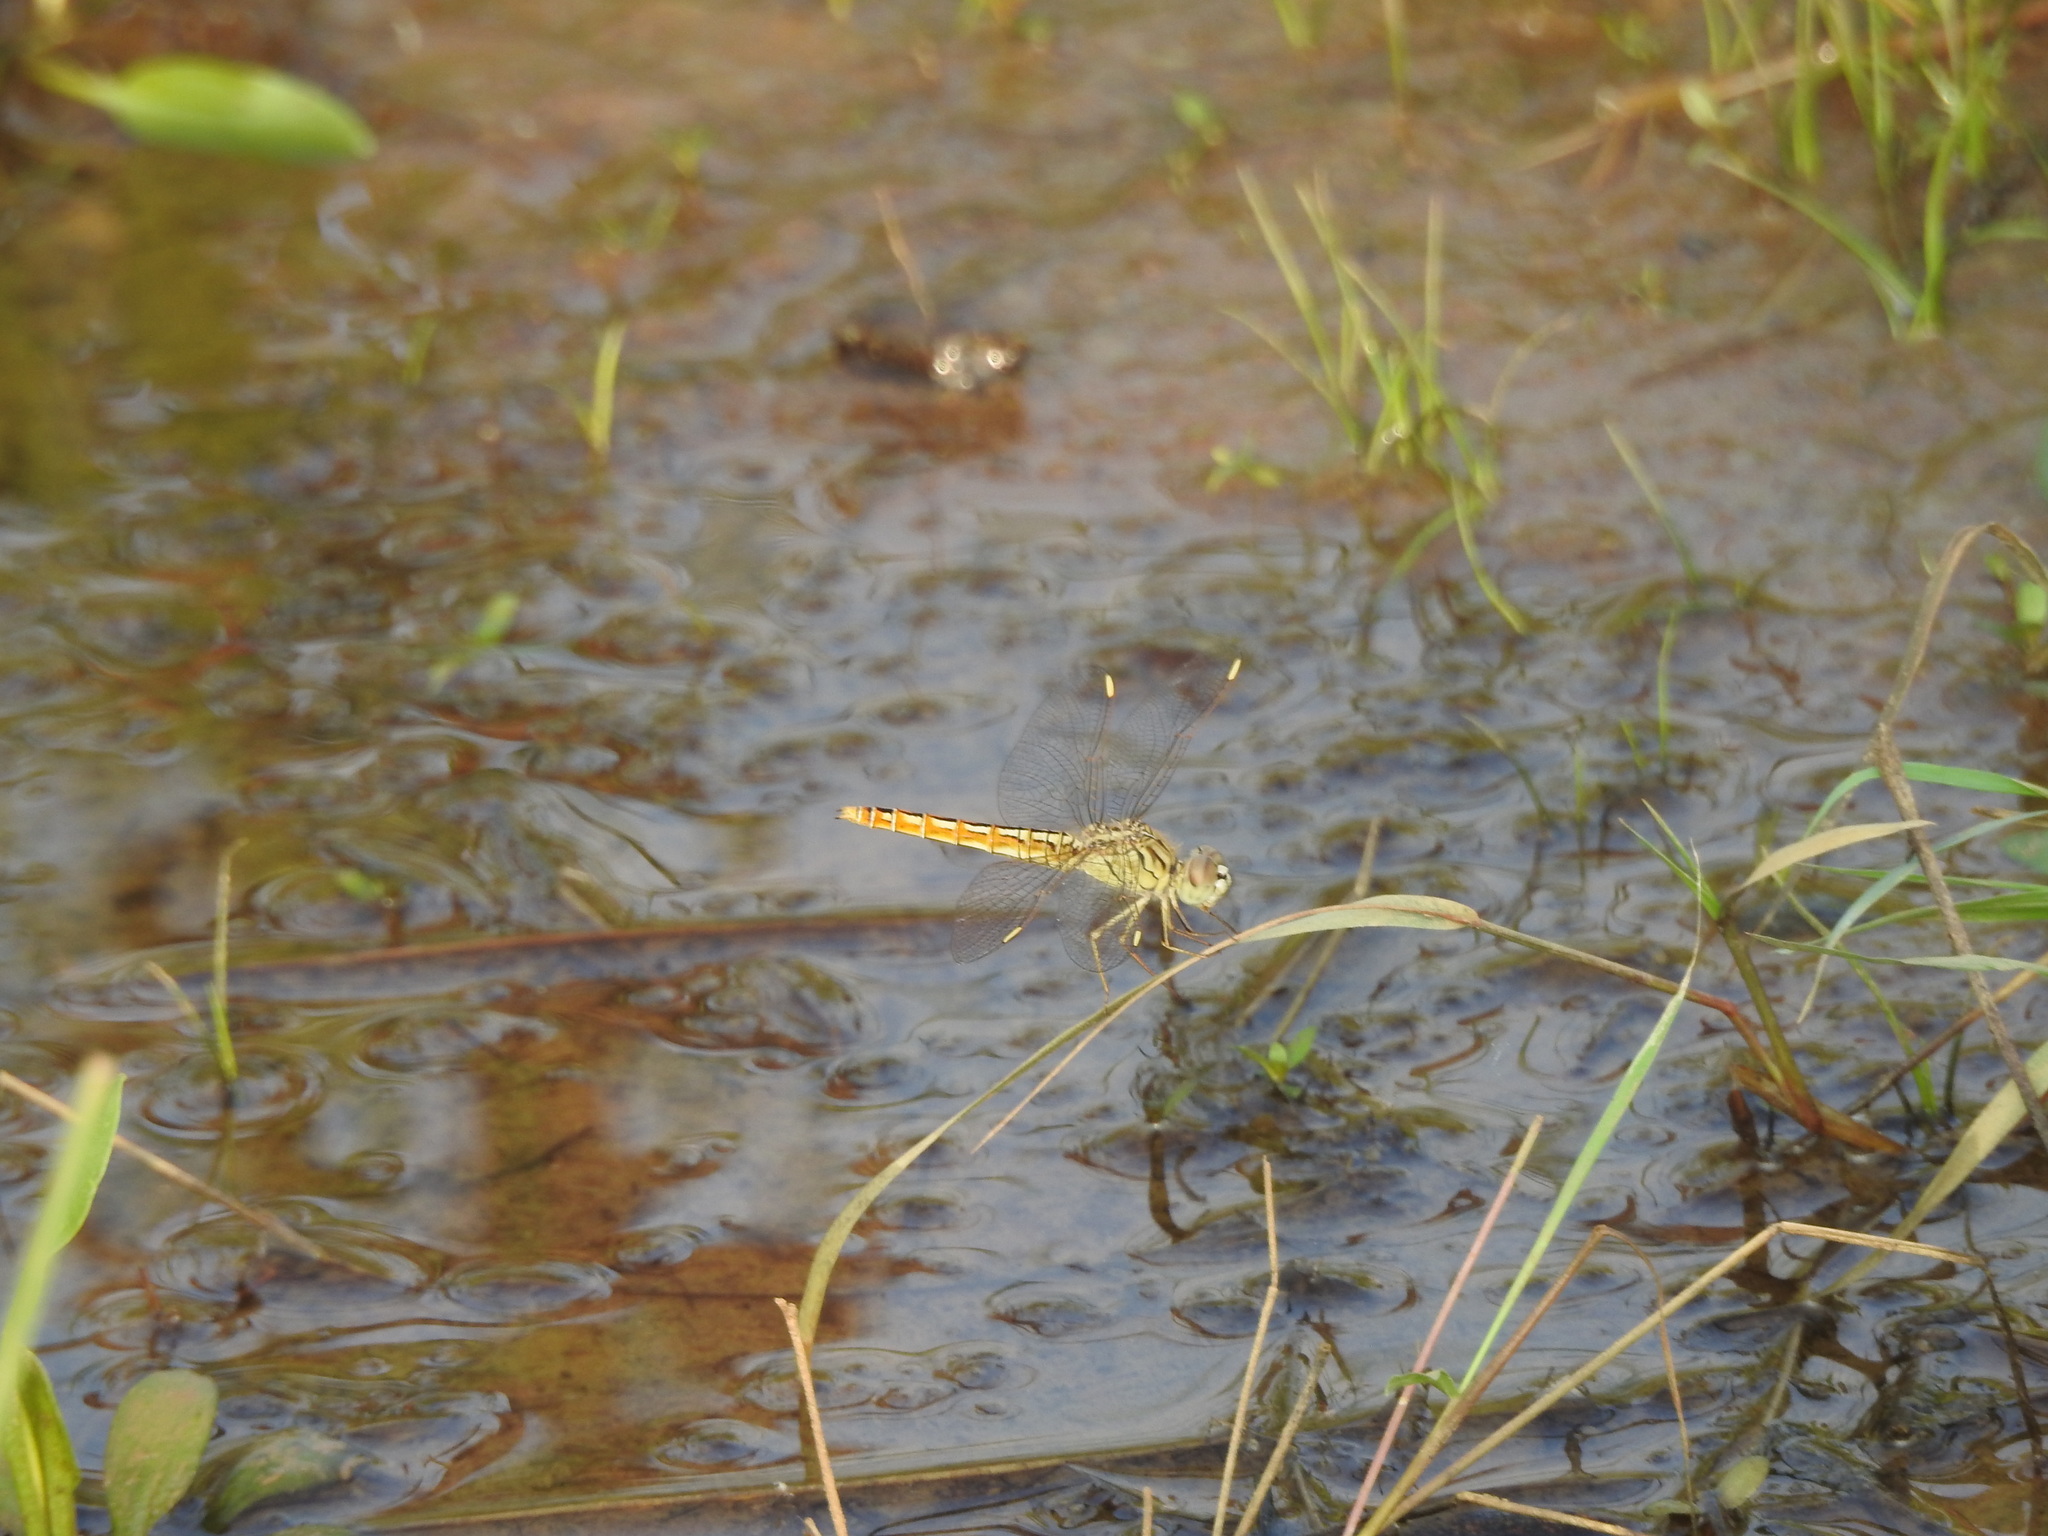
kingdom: Animalia
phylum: Arthropoda
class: Insecta
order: Odonata
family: Libellulidae
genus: Brachythemis
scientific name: Brachythemis contaminata
